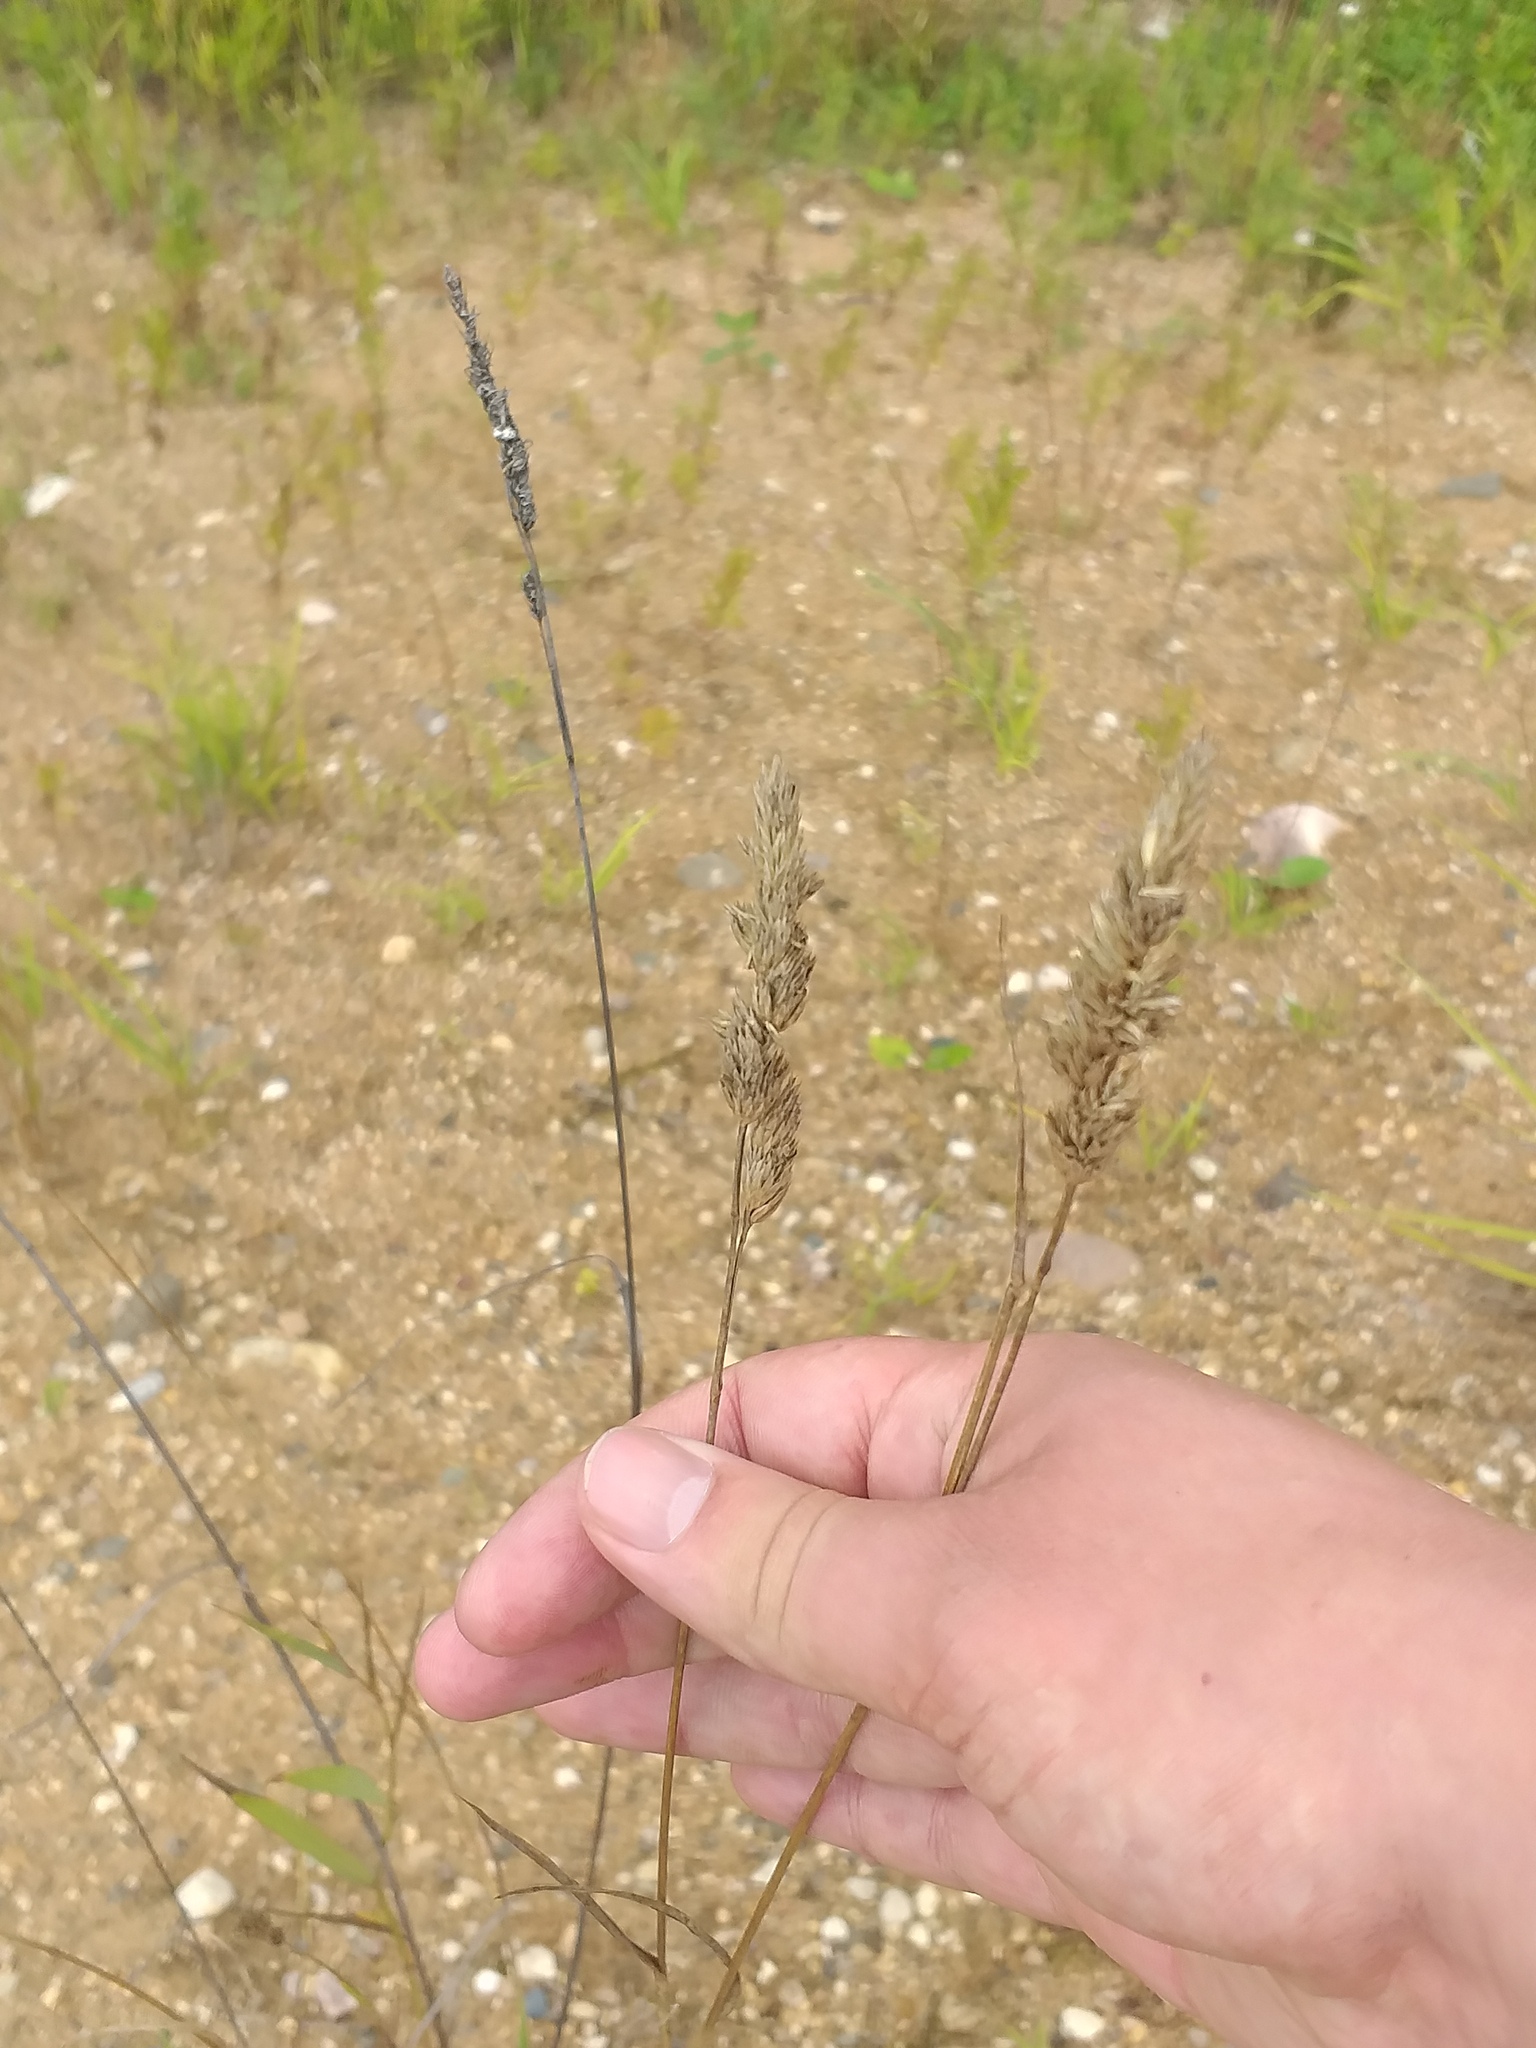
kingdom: Plantae
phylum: Tracheophyta
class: Liliopsida
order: Poales
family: Poaceae
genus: Dactylis
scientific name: Dactylis glomerata
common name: Orchardgrass
